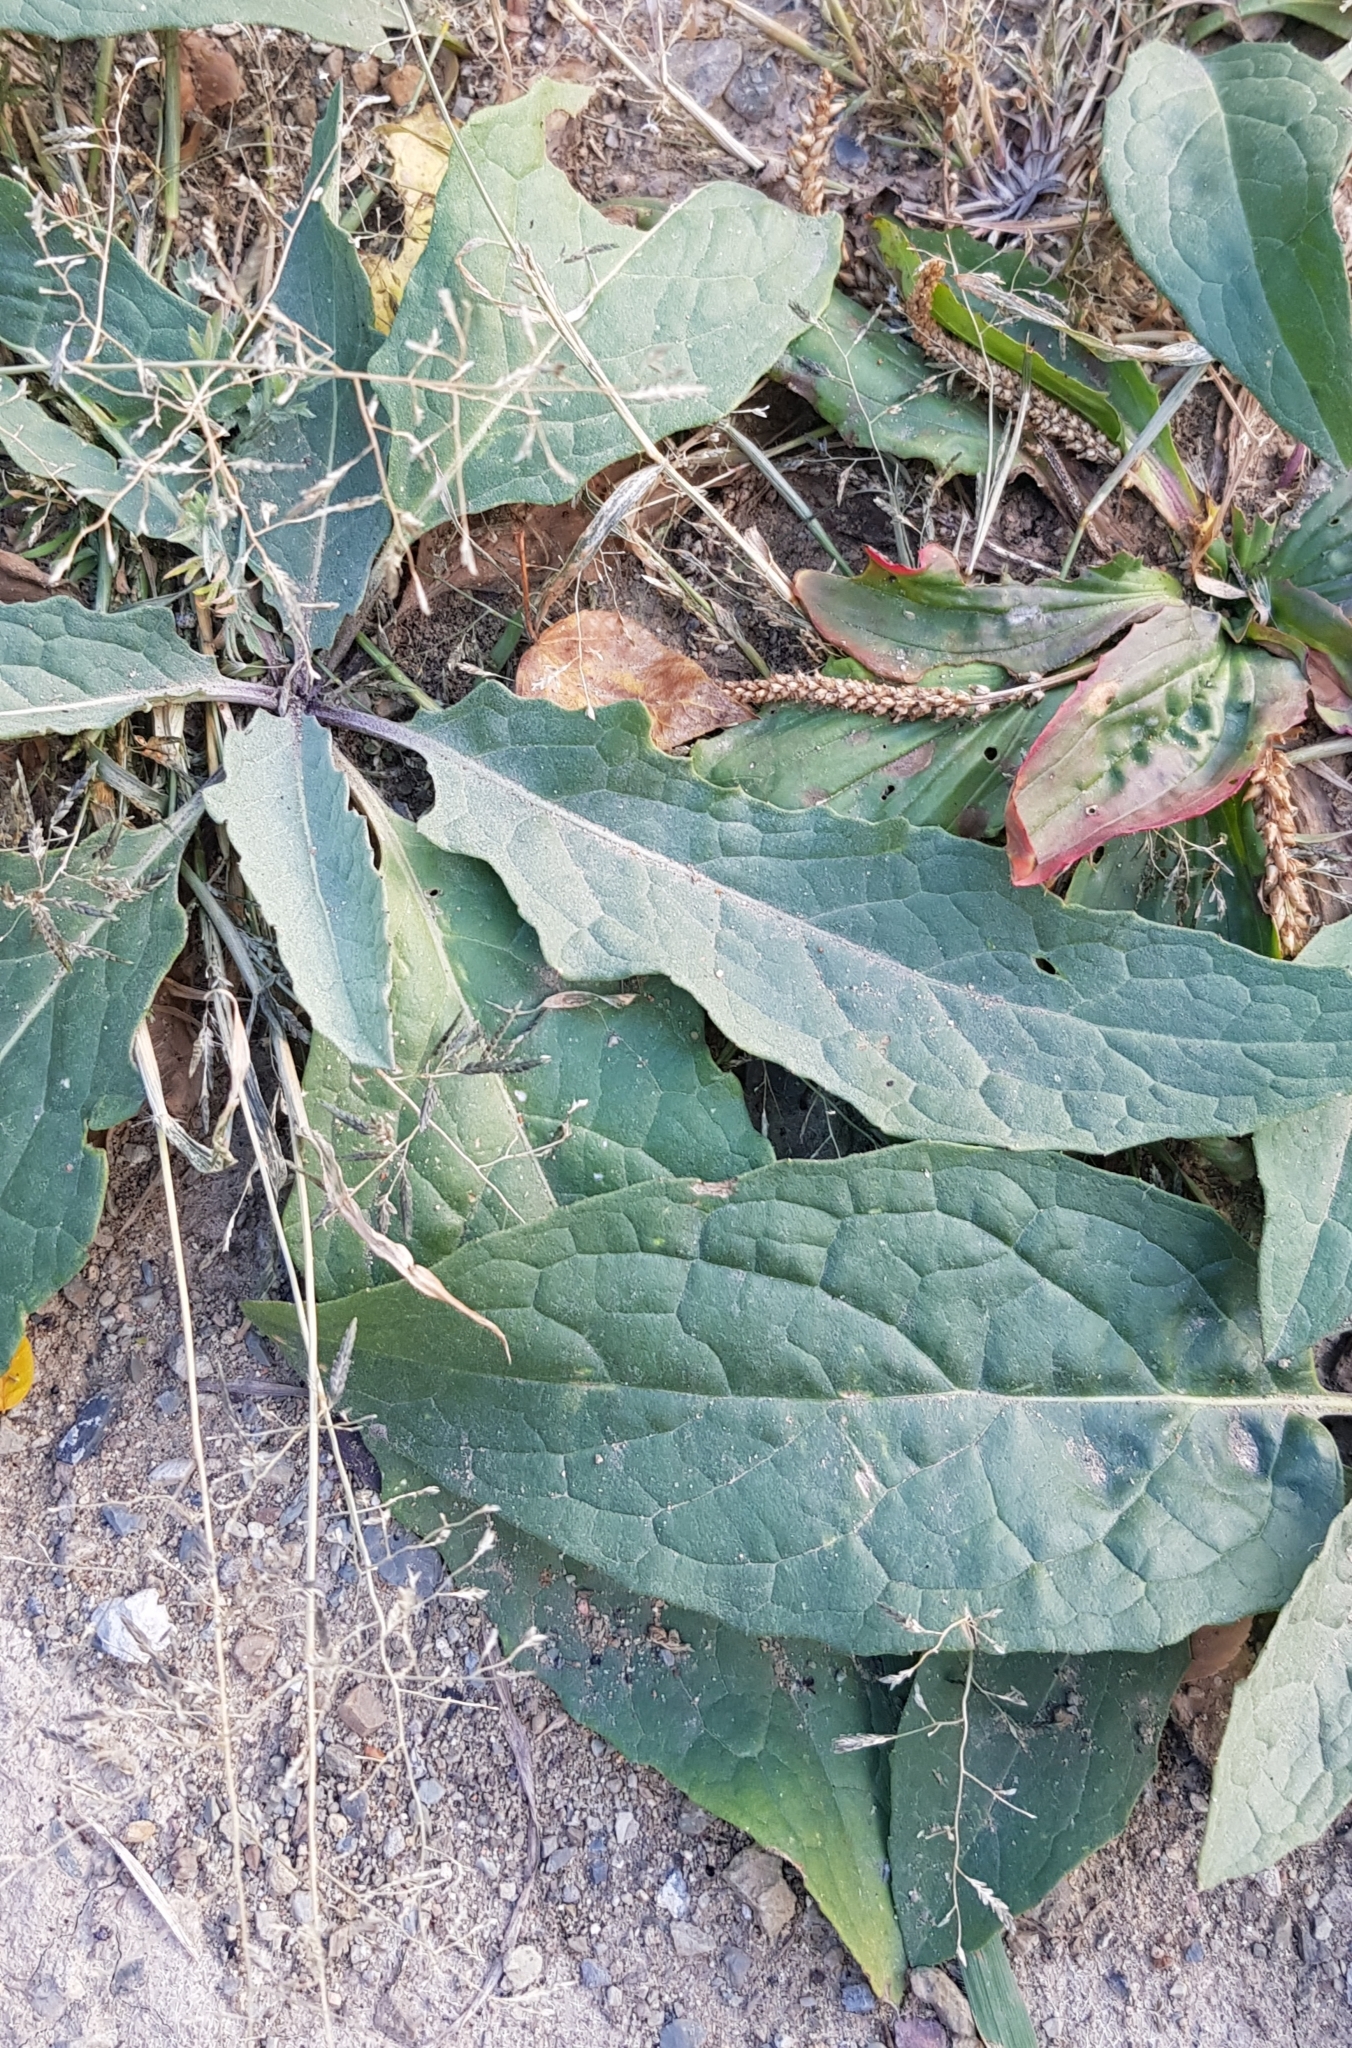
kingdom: Plantae
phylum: Tracheophyta
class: Magnoliopsida
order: Asterales
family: Asteraceae
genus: Saussurea
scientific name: Saussurea amara
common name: Alberta sawwort
